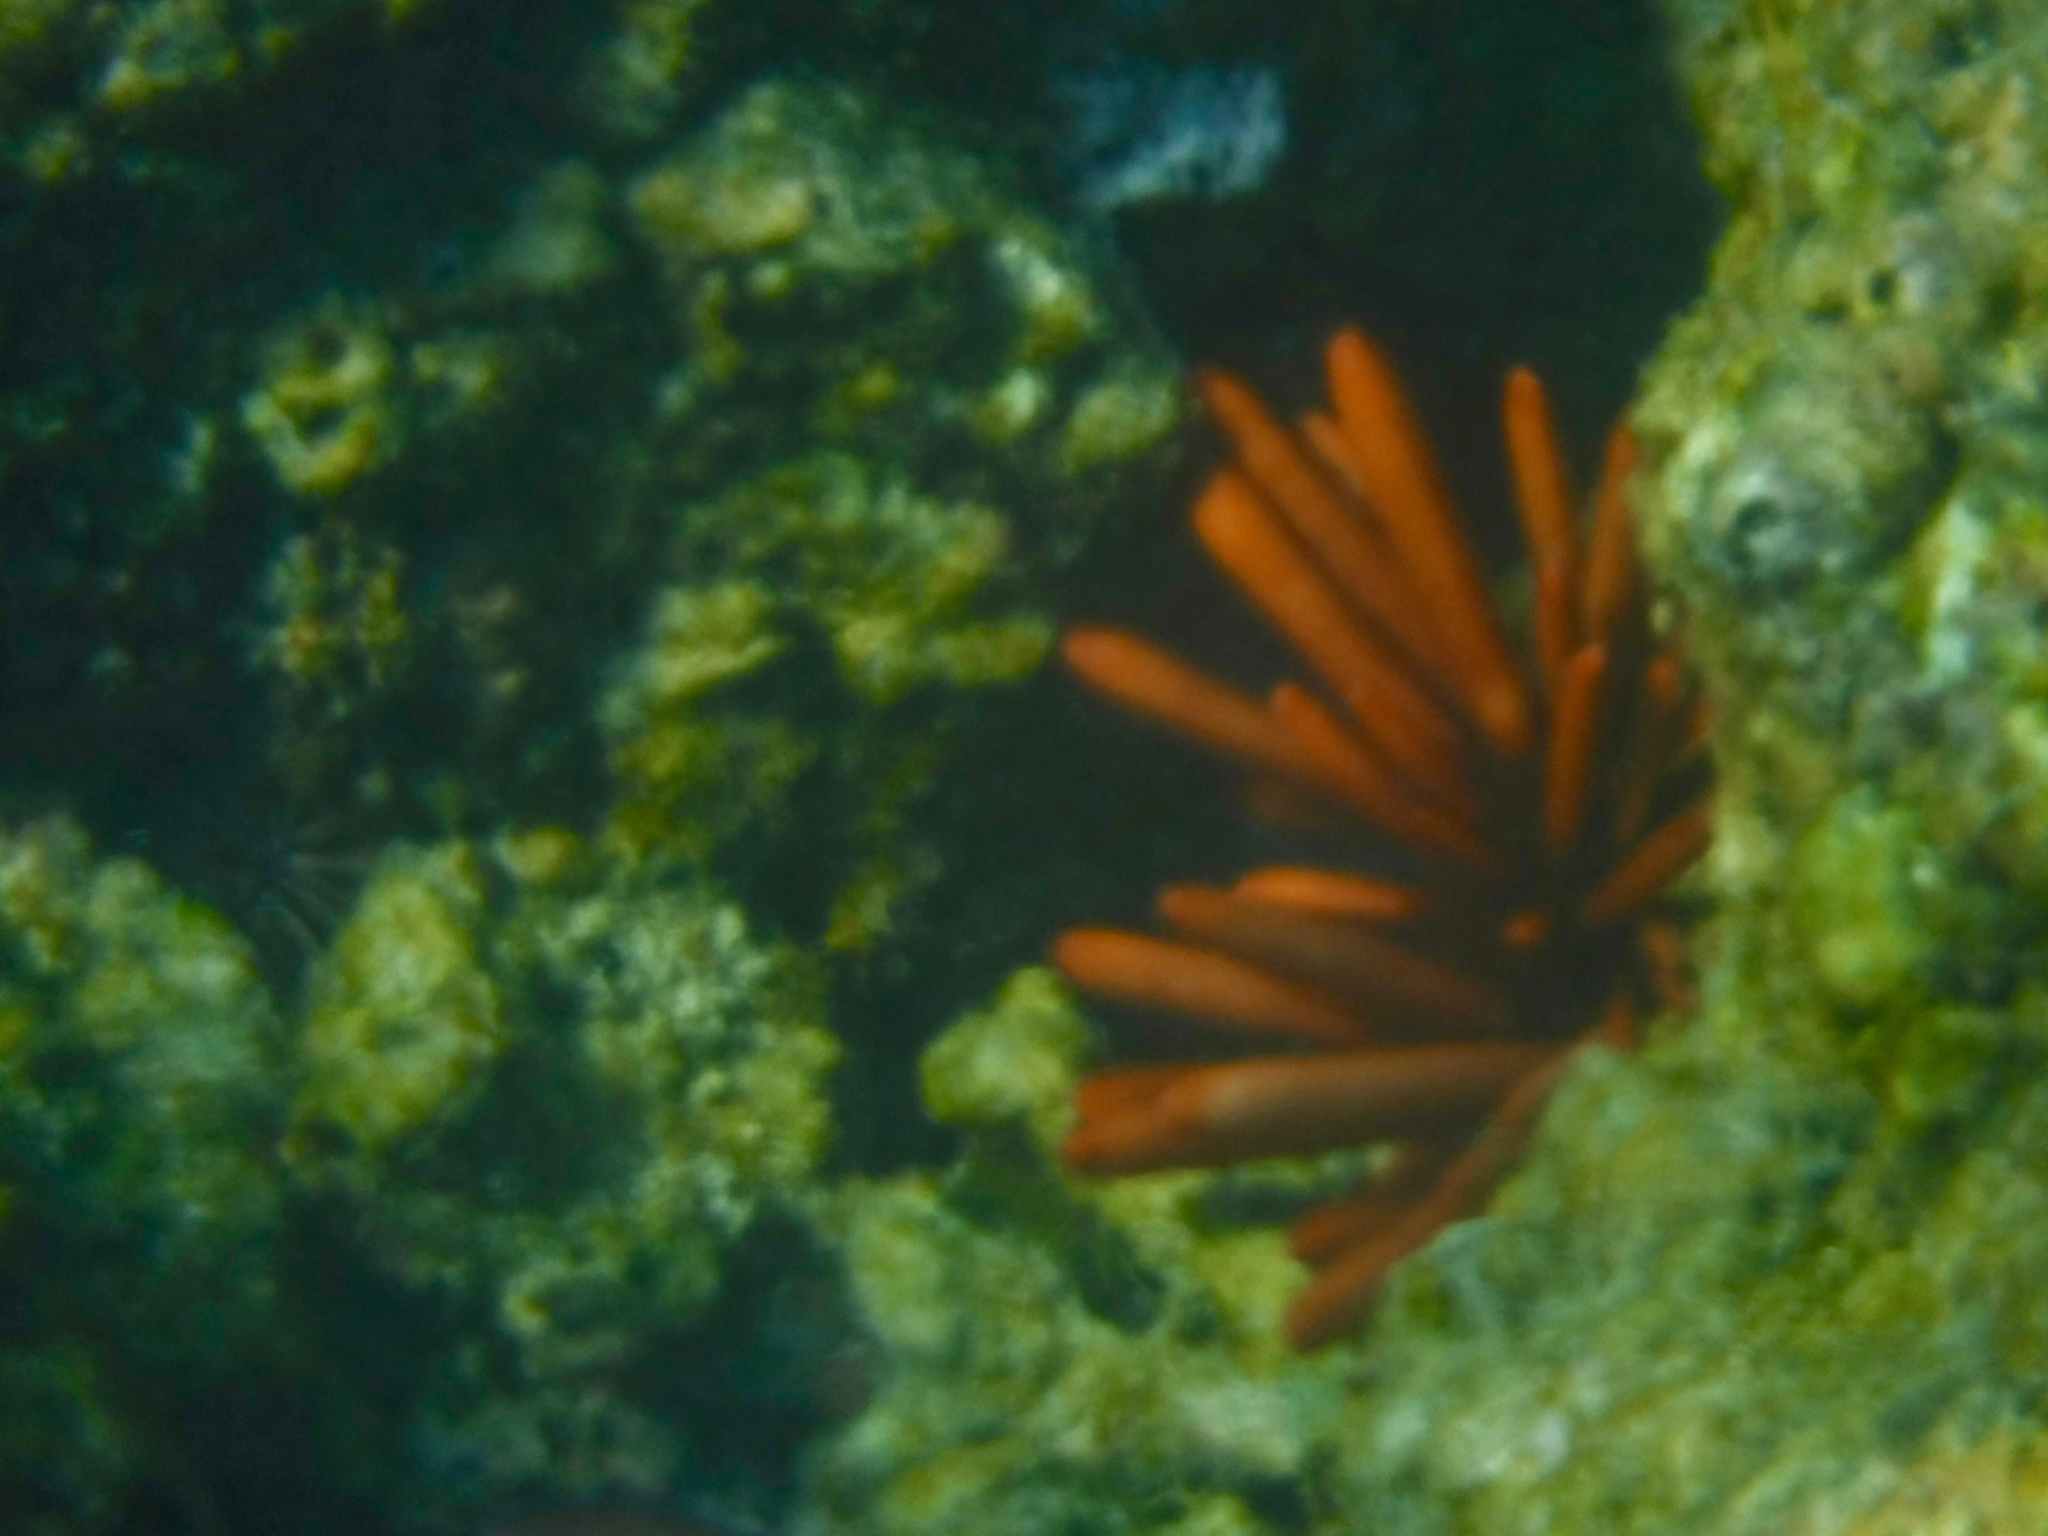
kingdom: Animalia
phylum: Echinodermata
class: Echinoidea
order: Camarodonta
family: Echinometridae
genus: Heterocentrotus
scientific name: Heterocentrotus mamillatus
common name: Slate pencil urchin
